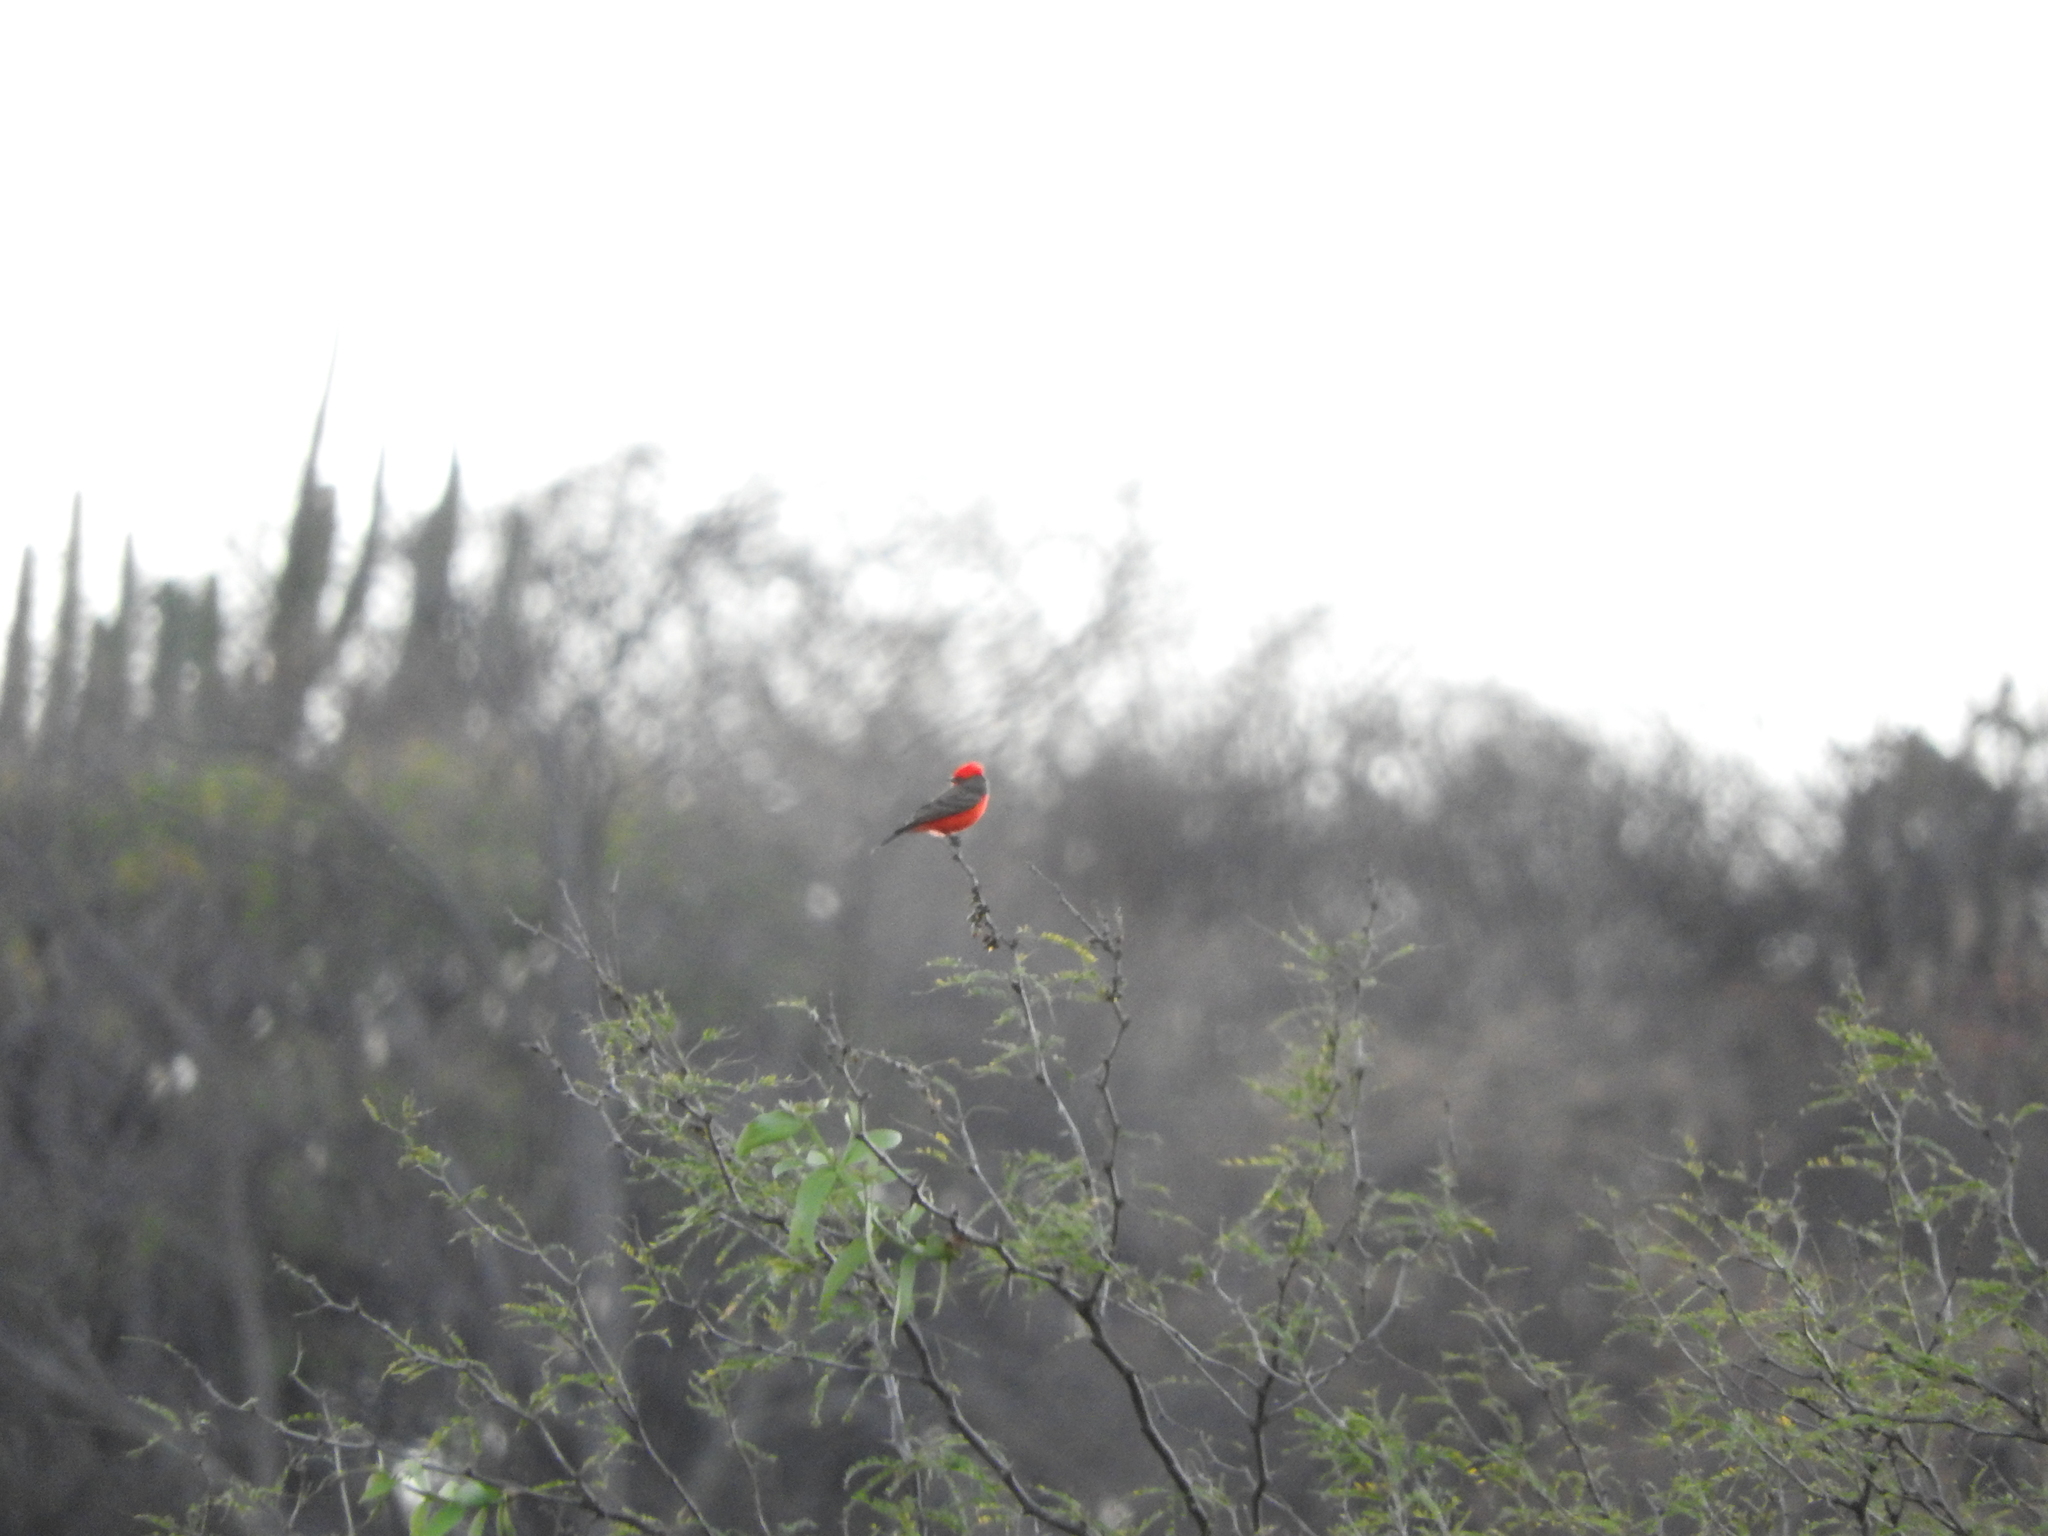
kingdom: Animalia
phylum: Chordata
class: Aves
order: Passeriformes
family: Tyrannidae
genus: Pyrocephalus
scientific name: Pyrocephalus rubinus
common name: Vermilion flycatcher
